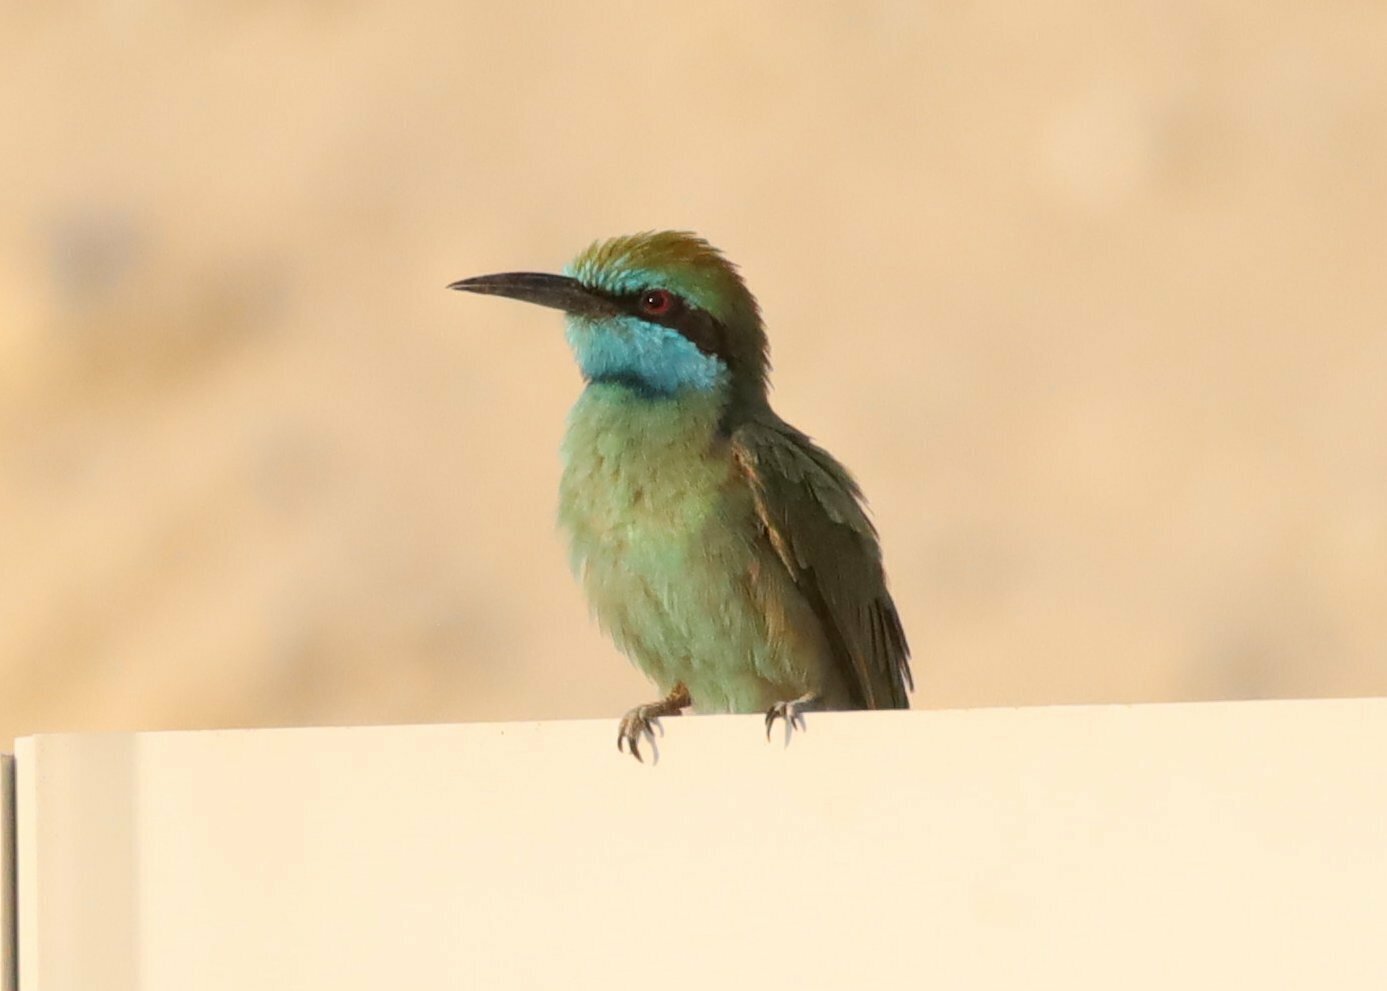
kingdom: Animalia
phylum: Chordata
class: Aves
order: Coraciiformes
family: Meropidae
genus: Merops
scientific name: Merops cyanophrys
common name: Arabian green bee-eater
